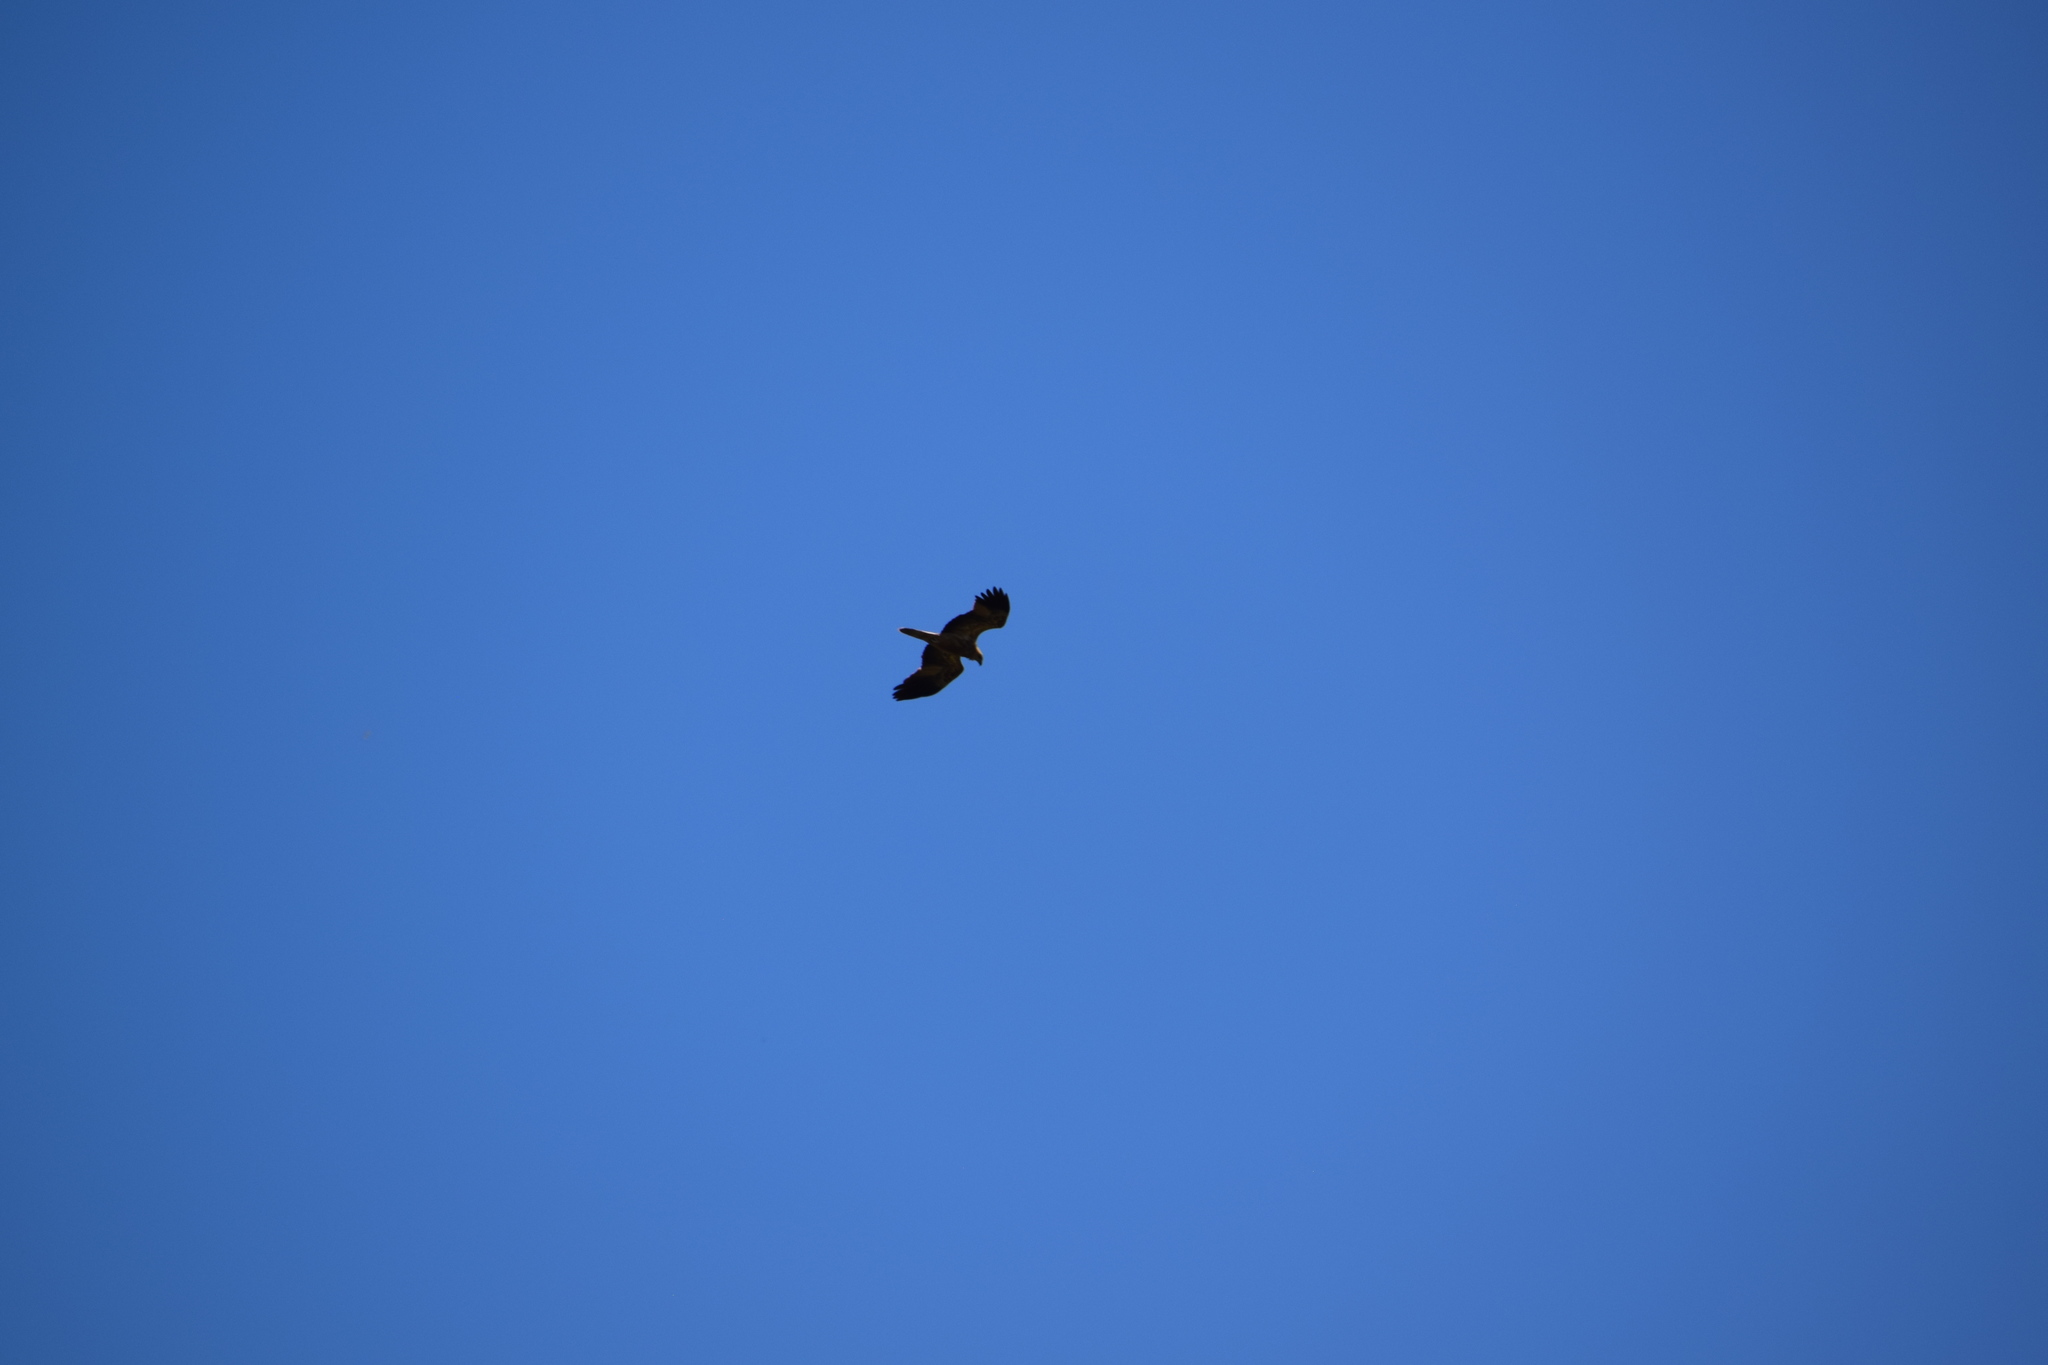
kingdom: Animalia
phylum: Chordata
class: Aves
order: Accipitriformes
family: Accipitridae
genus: Haliastur
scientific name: Haliastur sphenurus
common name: Whistling kite
